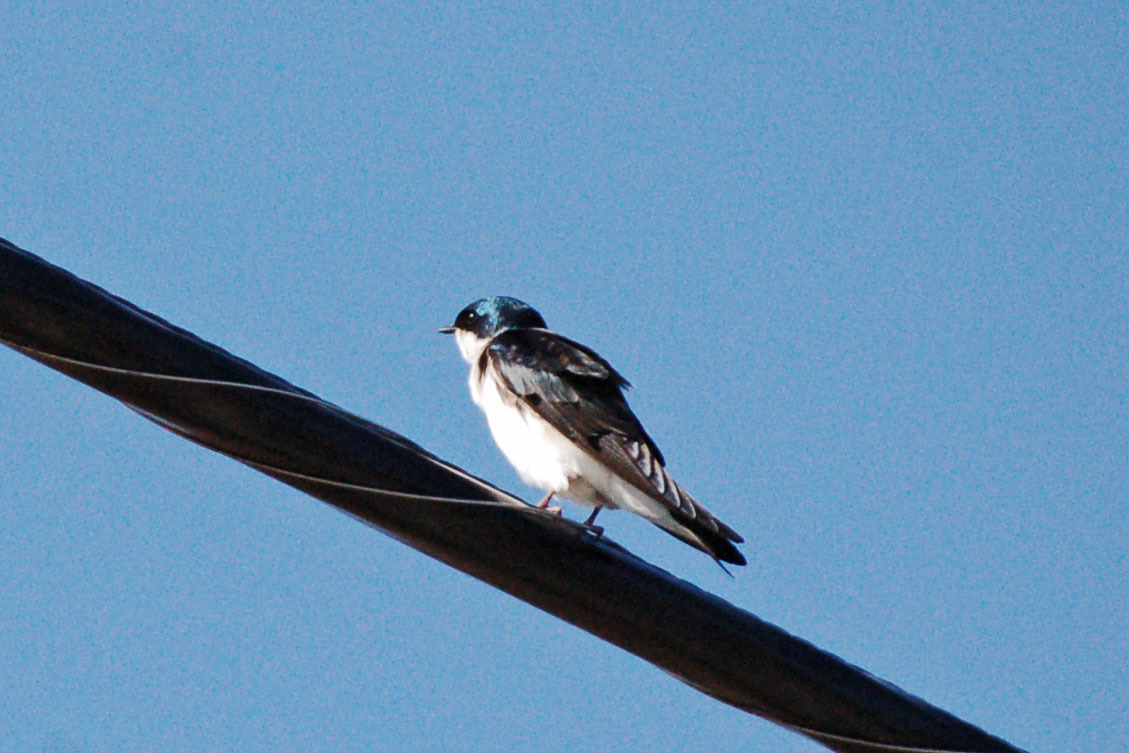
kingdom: Animalia
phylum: Chordata
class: Aves
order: Passeriformes
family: Hirundinidae
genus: Tachycineta
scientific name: Tachycineta bicolor
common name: Tree swallow
